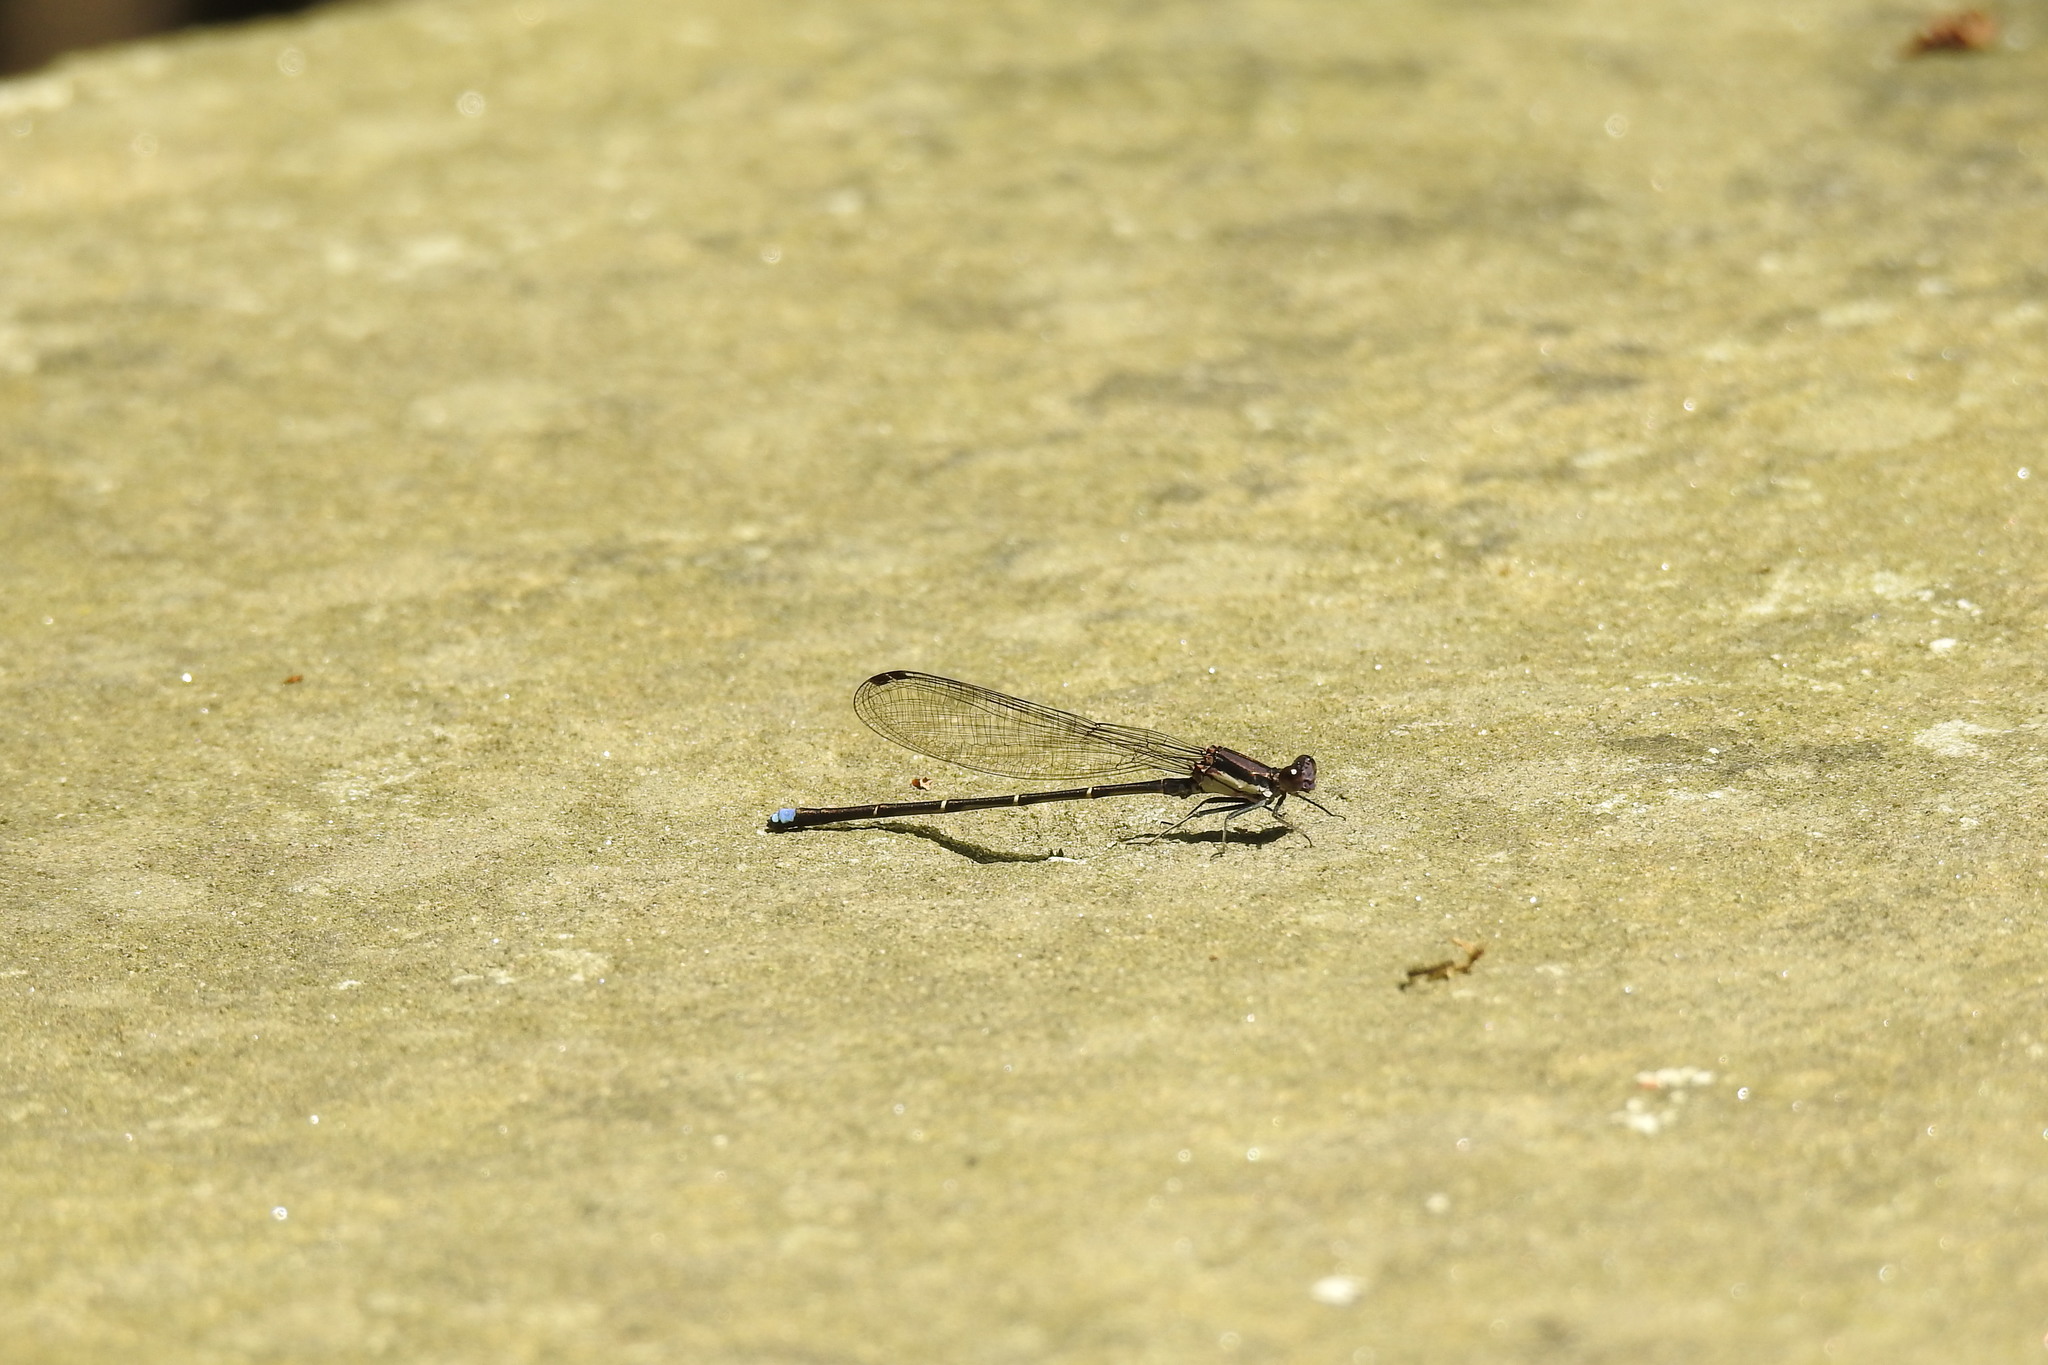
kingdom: Animalia
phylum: Arthropoda
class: Insecta
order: Odonata
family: Coenagrionidae
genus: Argia
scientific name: Argia tibialis
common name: Blue-tipped dancer
